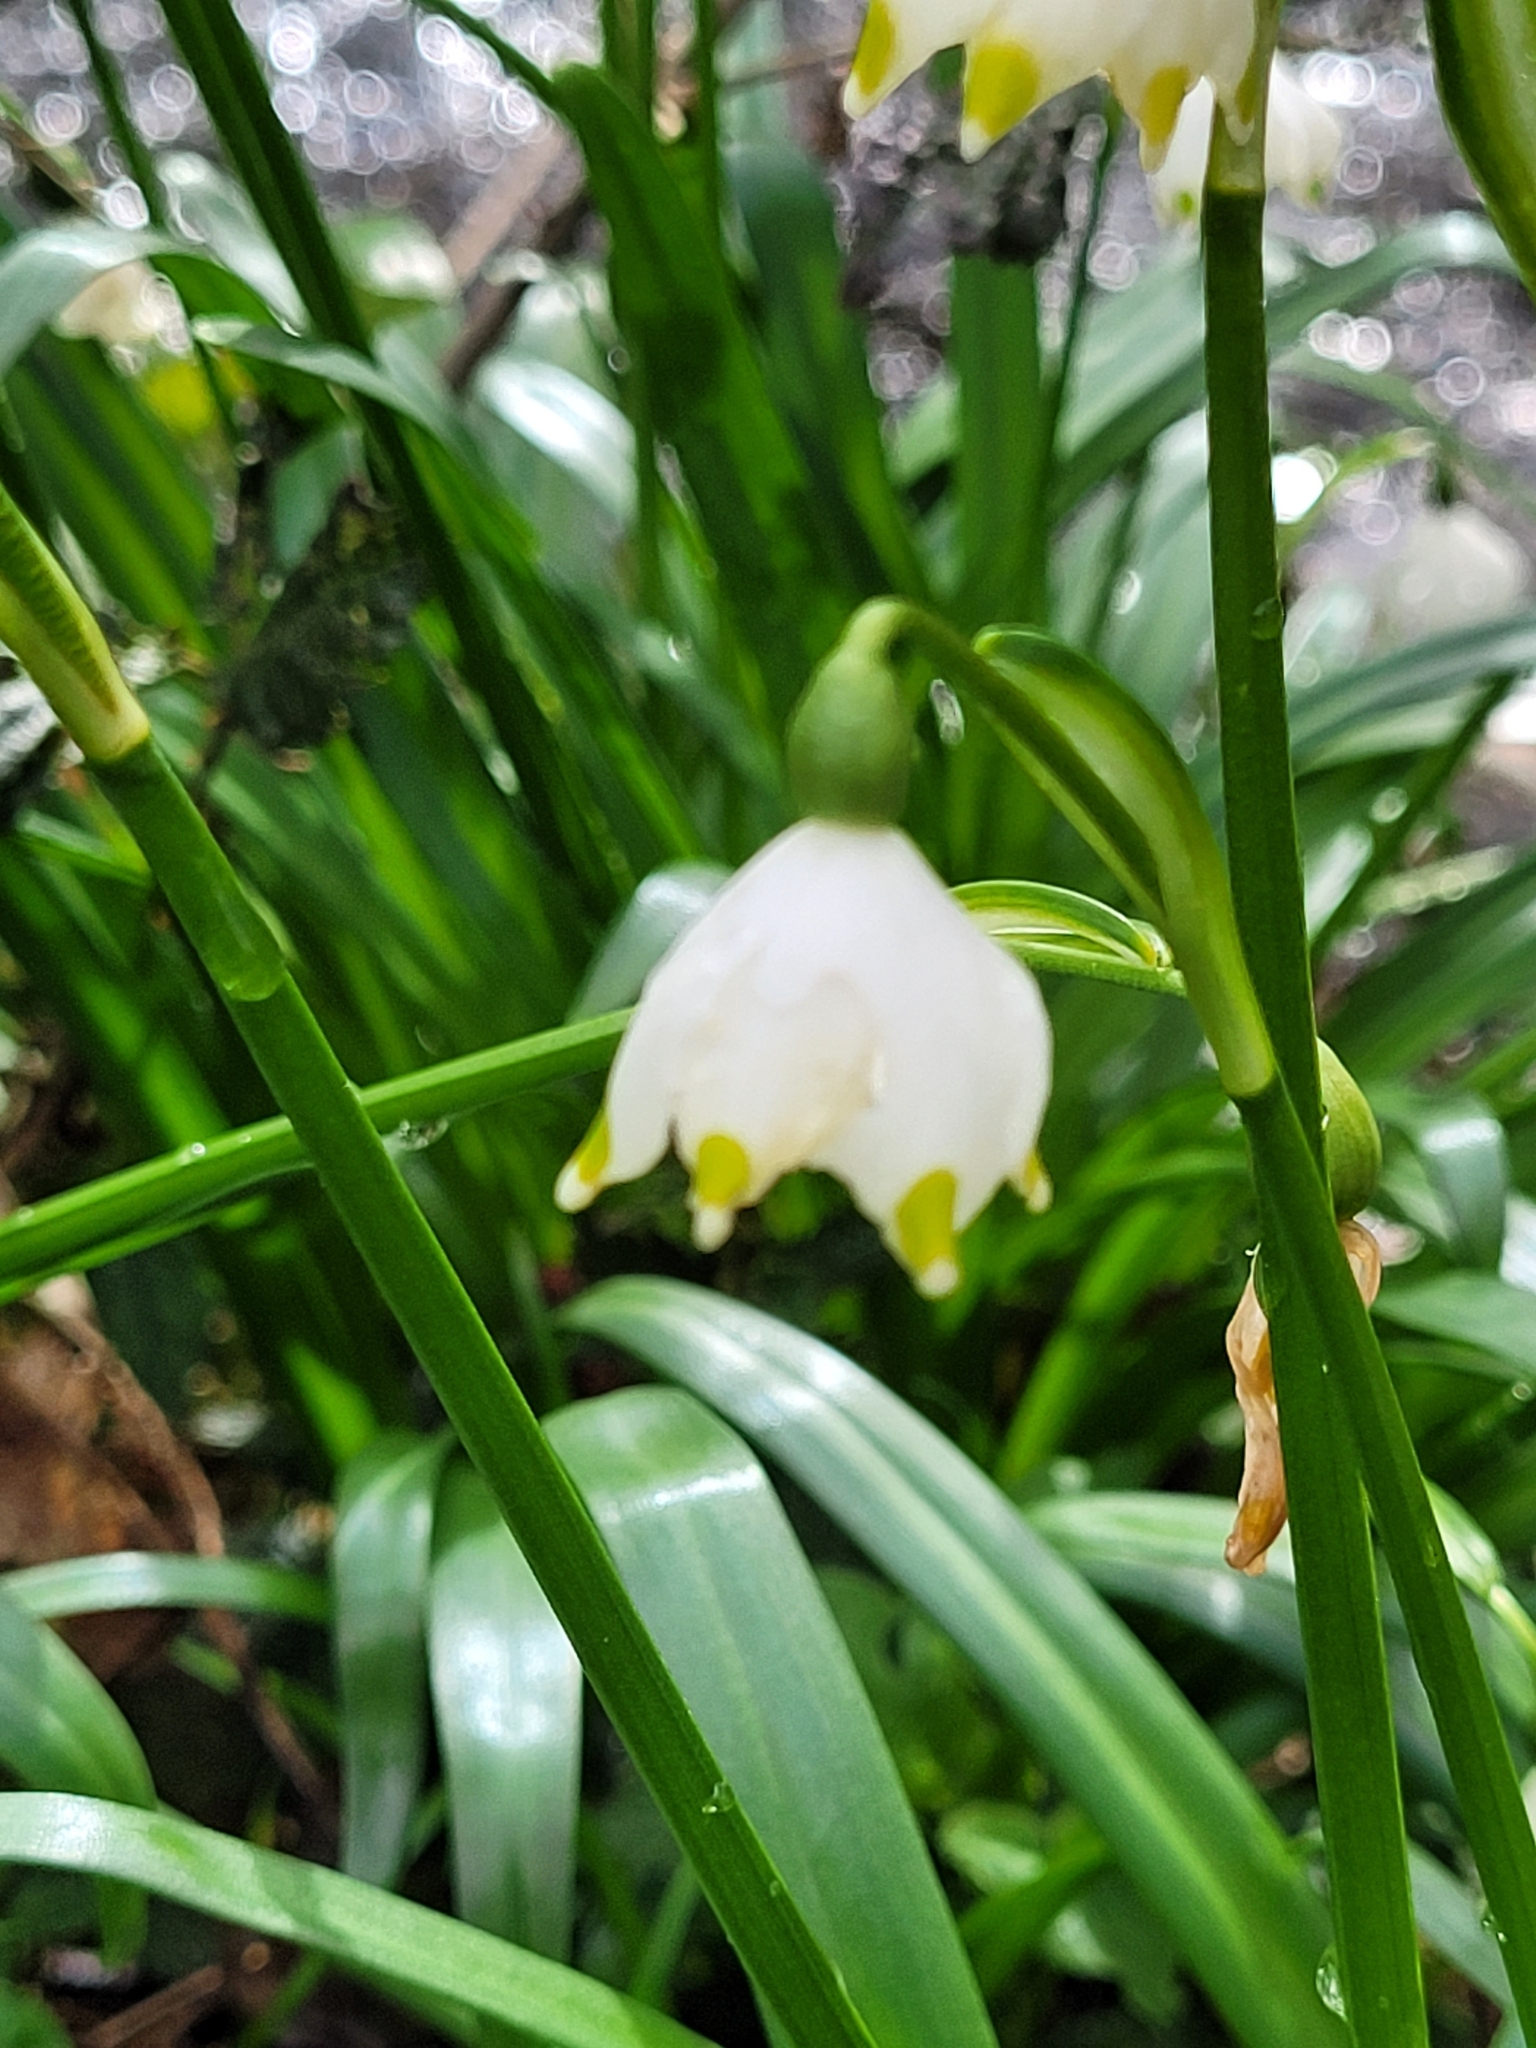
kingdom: Plantae
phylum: Tracheophyta
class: Liliopsida
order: Asparagales
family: Amaryllidaceae
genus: Leucojum
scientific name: Leucojum vernum
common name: Spring snowflake
